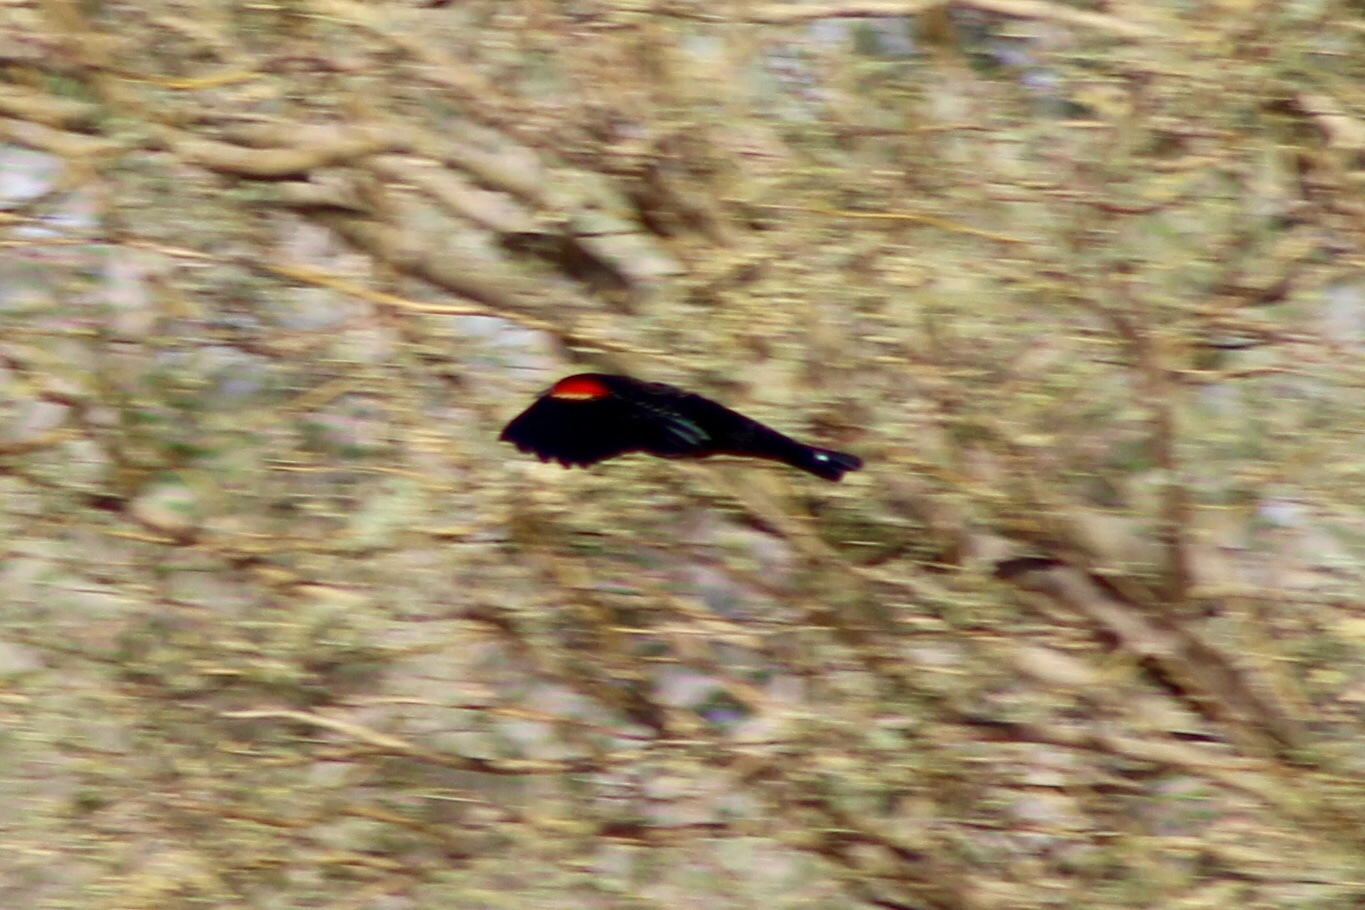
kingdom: Animalia
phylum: Chordata
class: Aves
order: Passeriformes
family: Icteridae
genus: Agelaius
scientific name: Agelaius phoeniceus
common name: Red-winged blackbird
